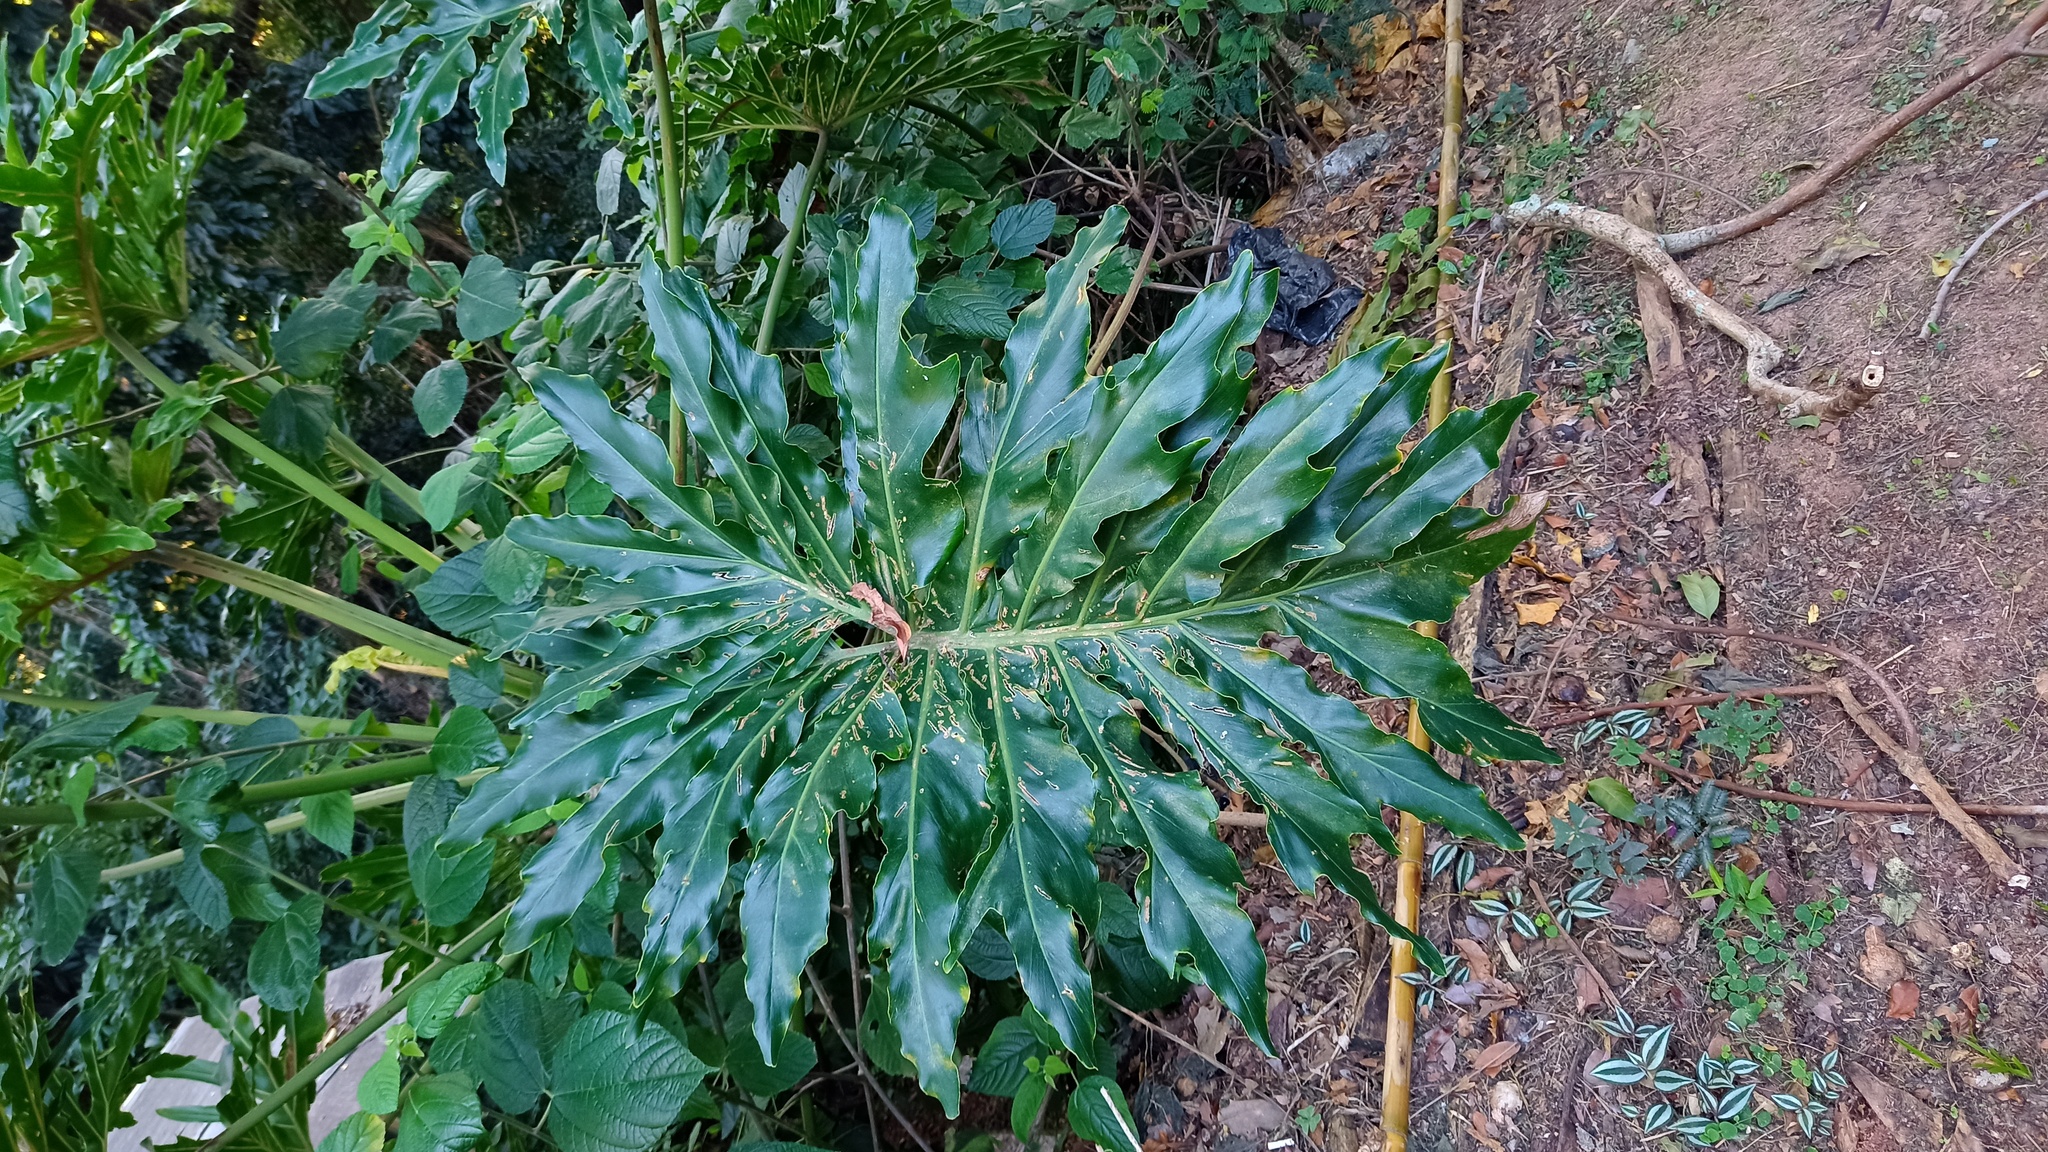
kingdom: Plantae
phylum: Tracheophyta
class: Liliopsida
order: Alismatales
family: Araceae
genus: Thaumatophyllum
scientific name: Thaumatophyllum bipinnatifidum
